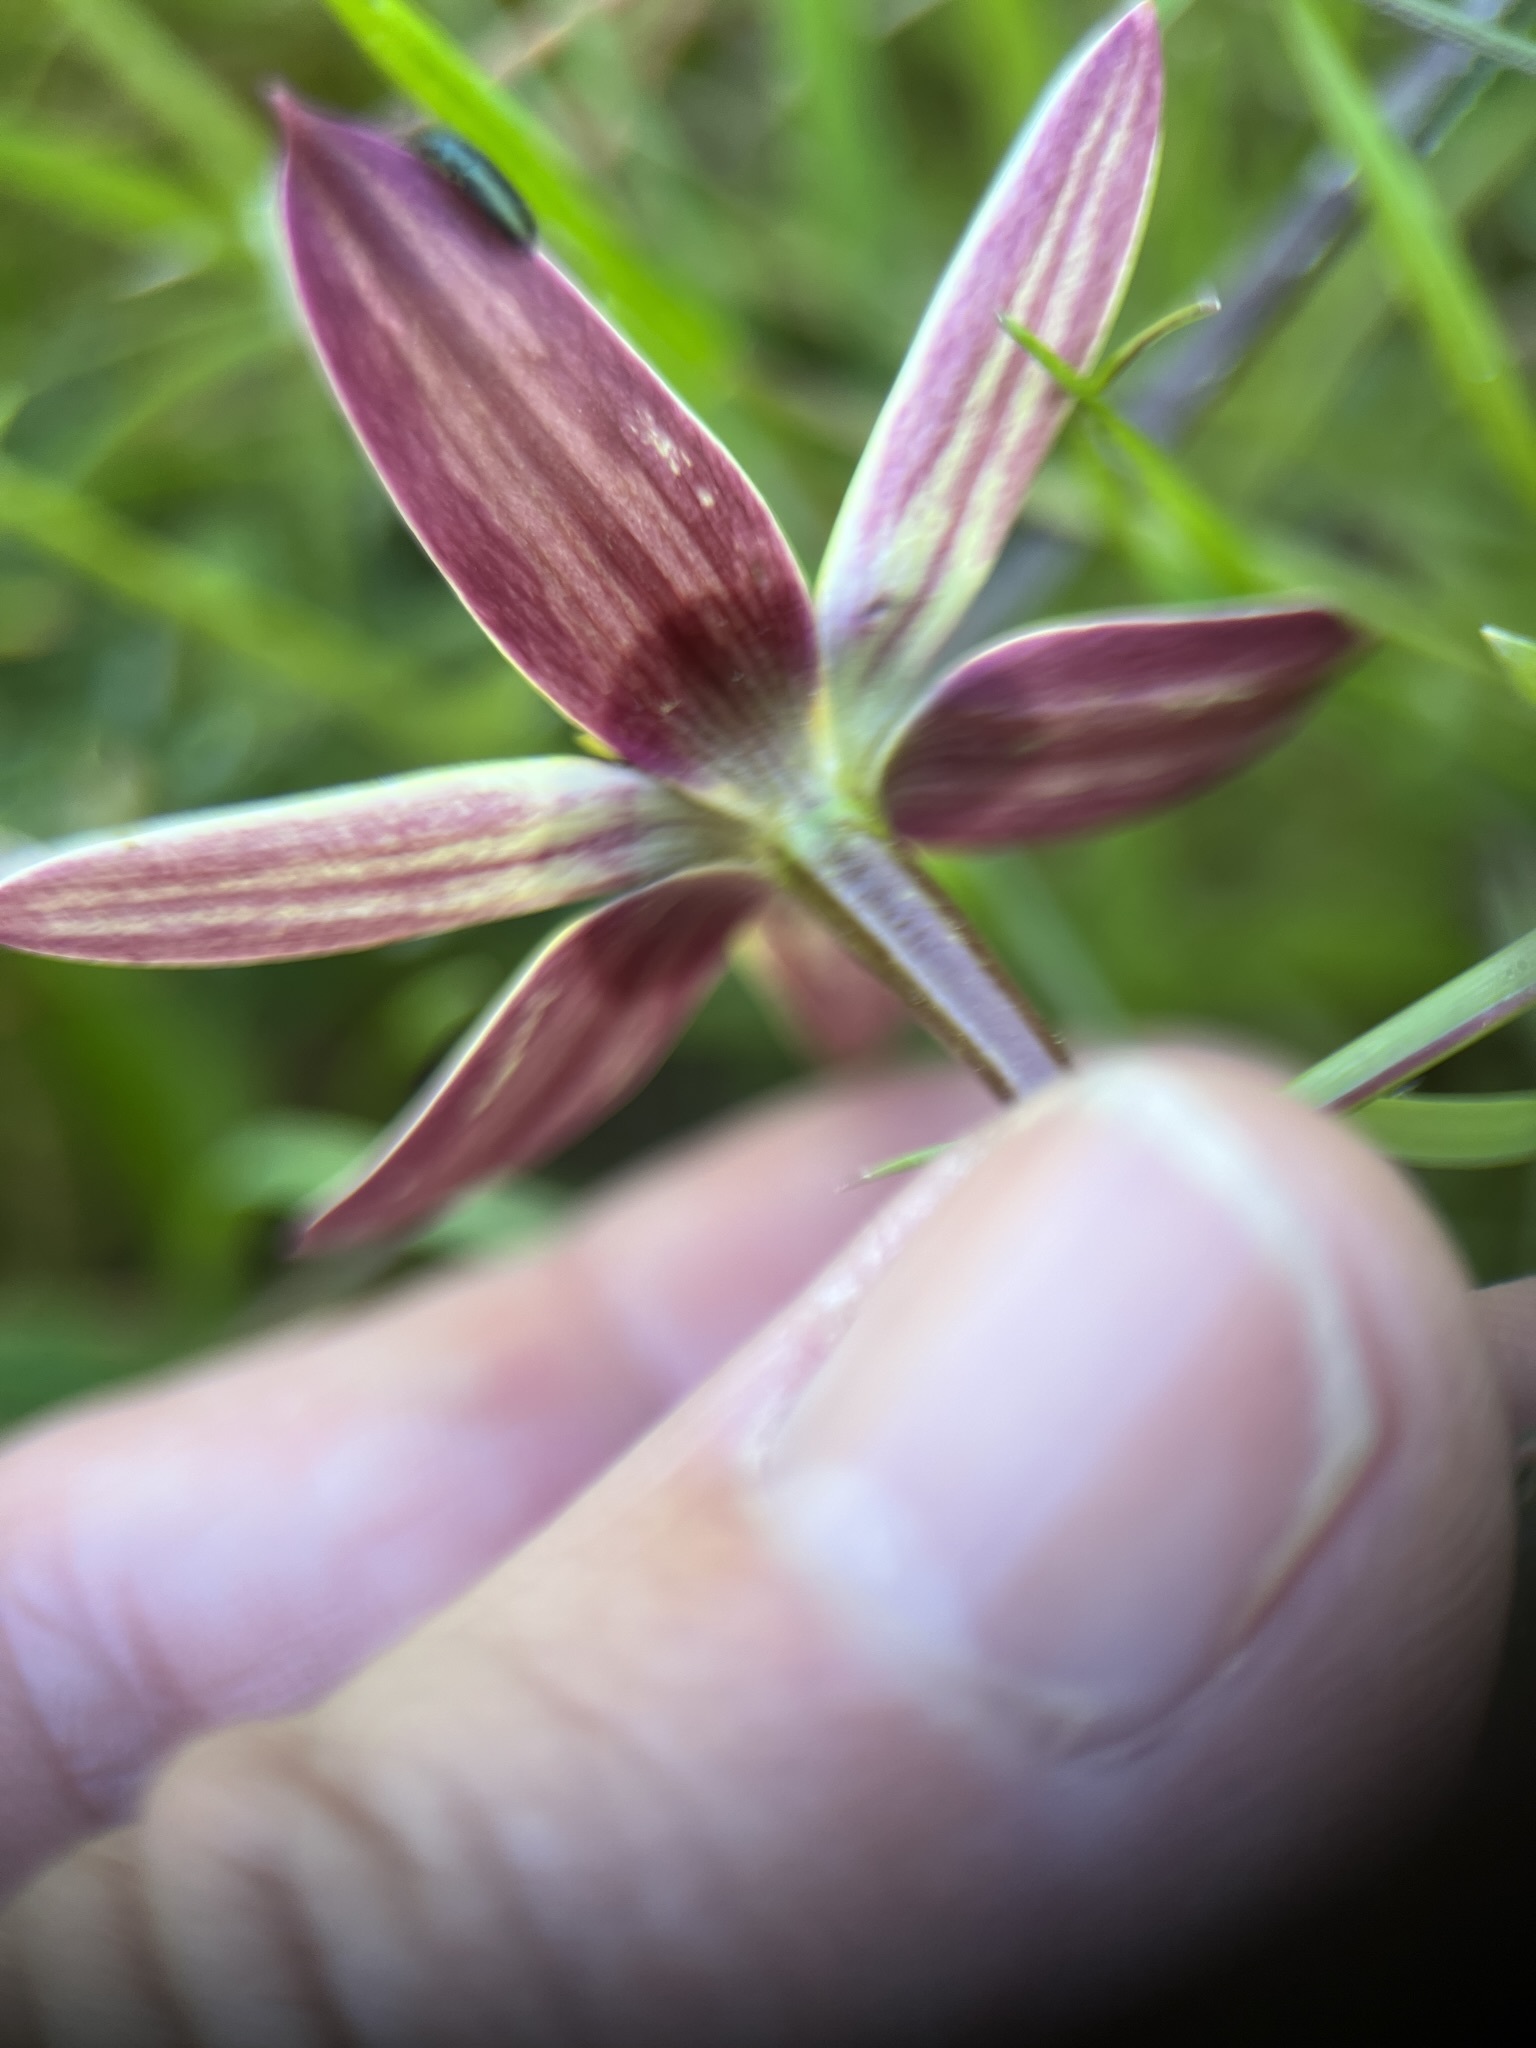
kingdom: Plantae
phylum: Tracheophyta
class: Liliopsida
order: Asparagales
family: Hypoxidaceae
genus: Pauridia
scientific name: Pauridia capensis
